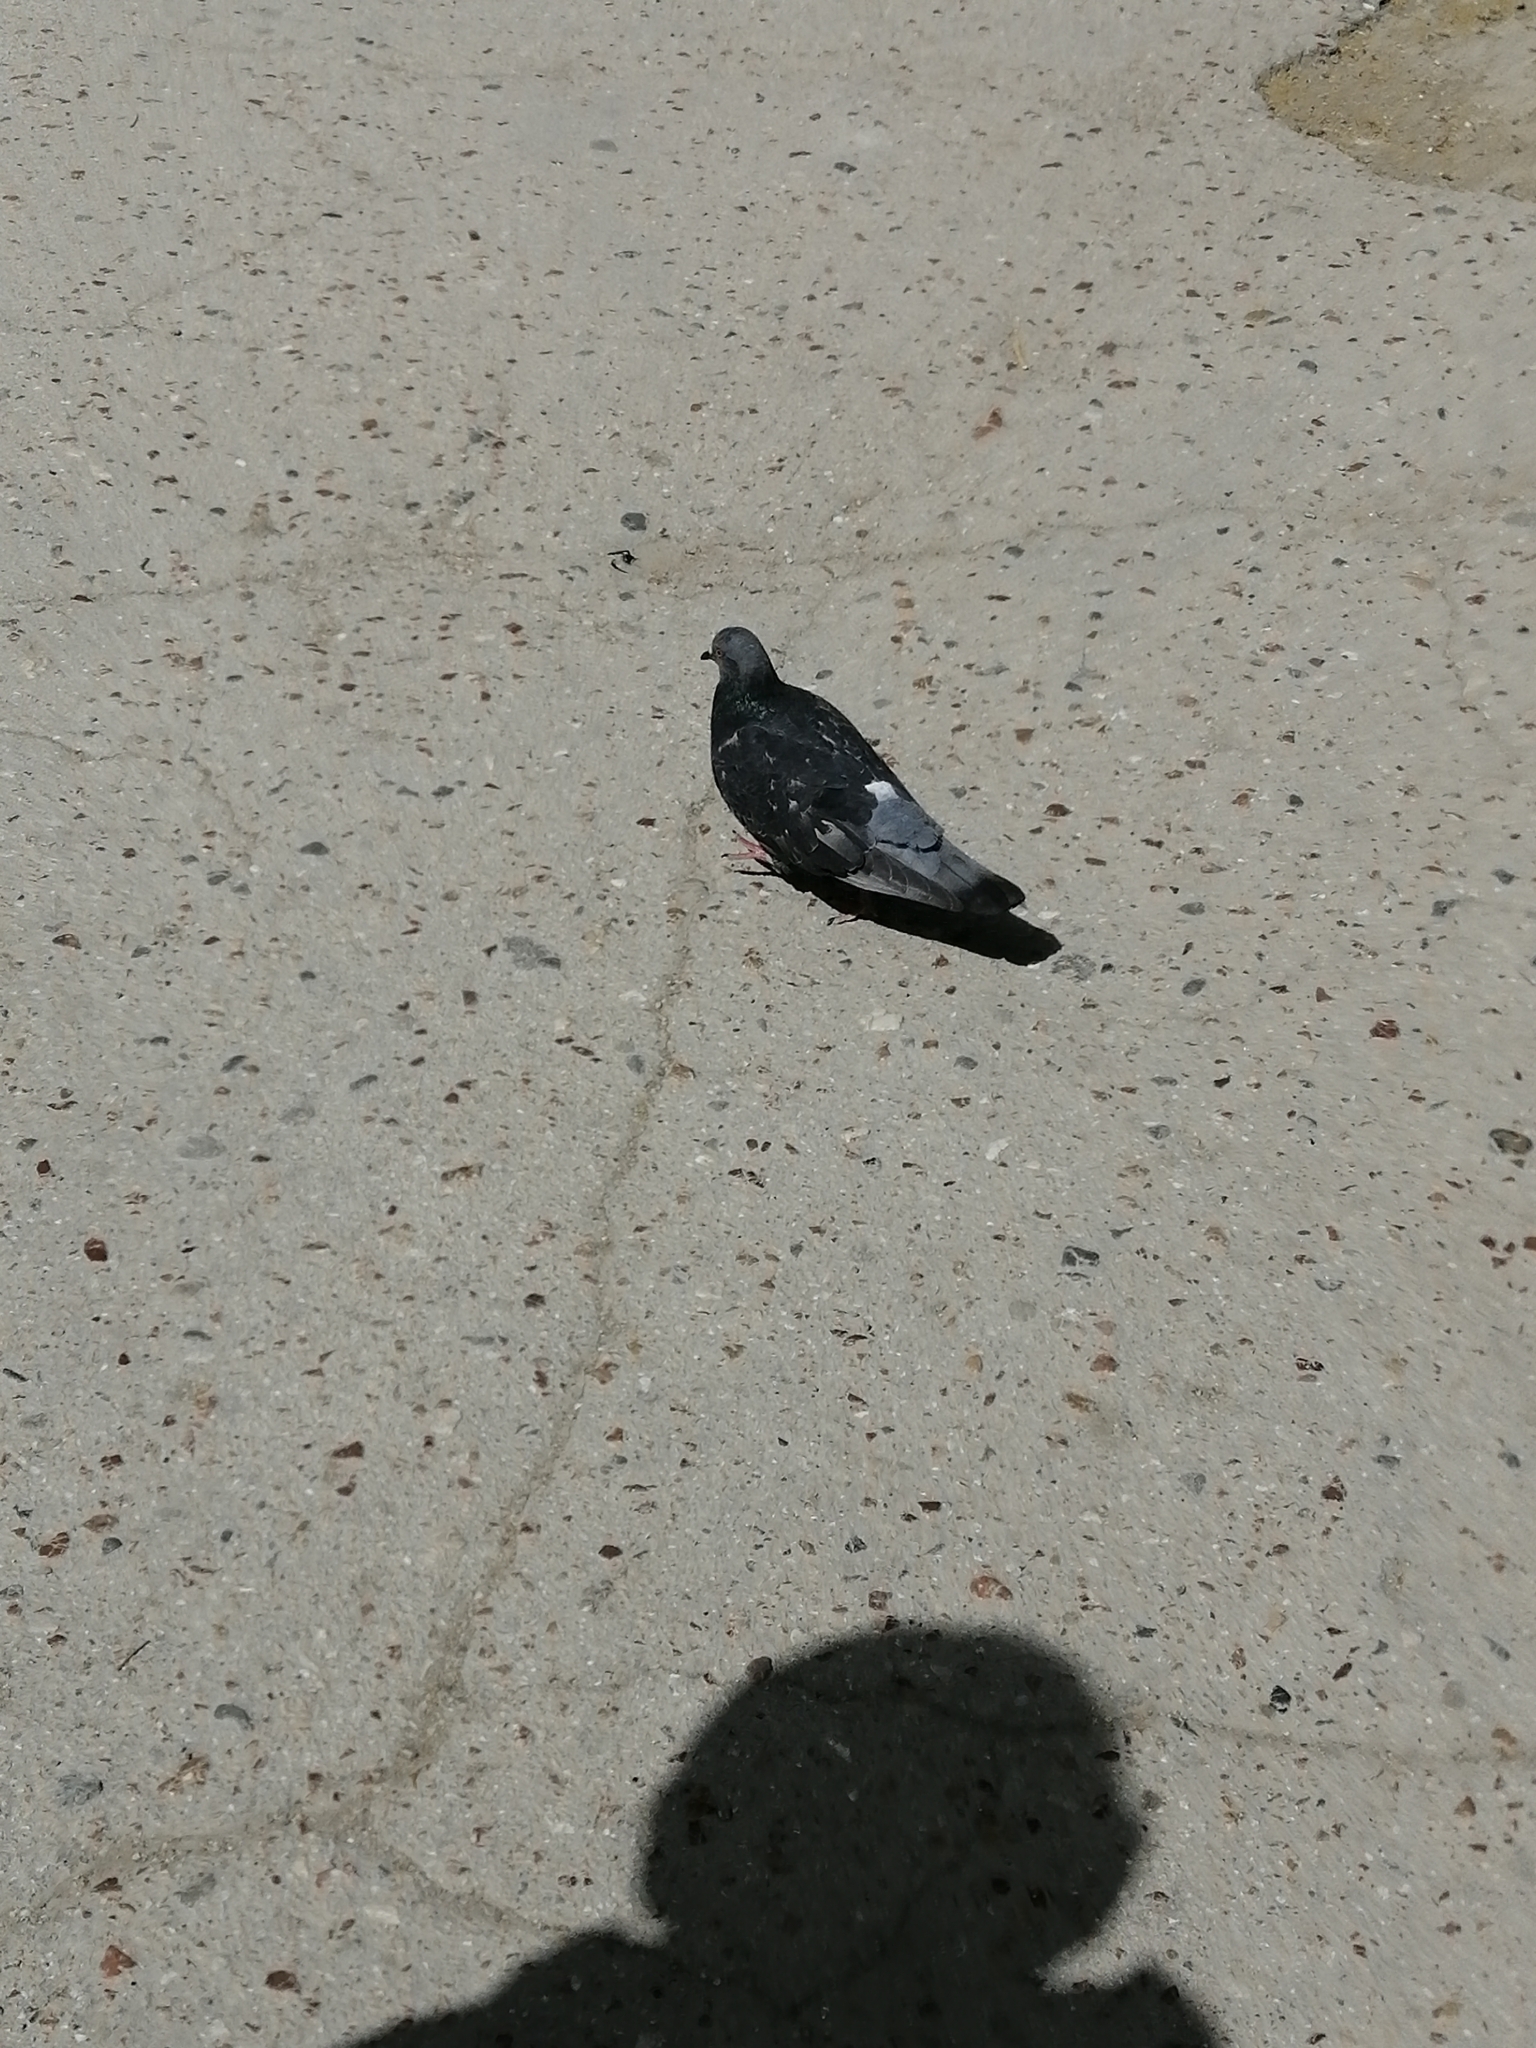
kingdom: Animalia
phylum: Chordata
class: Aves
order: Columbiformes
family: Columbidae
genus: Columba
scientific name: Columba livia
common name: Rock pigeon
